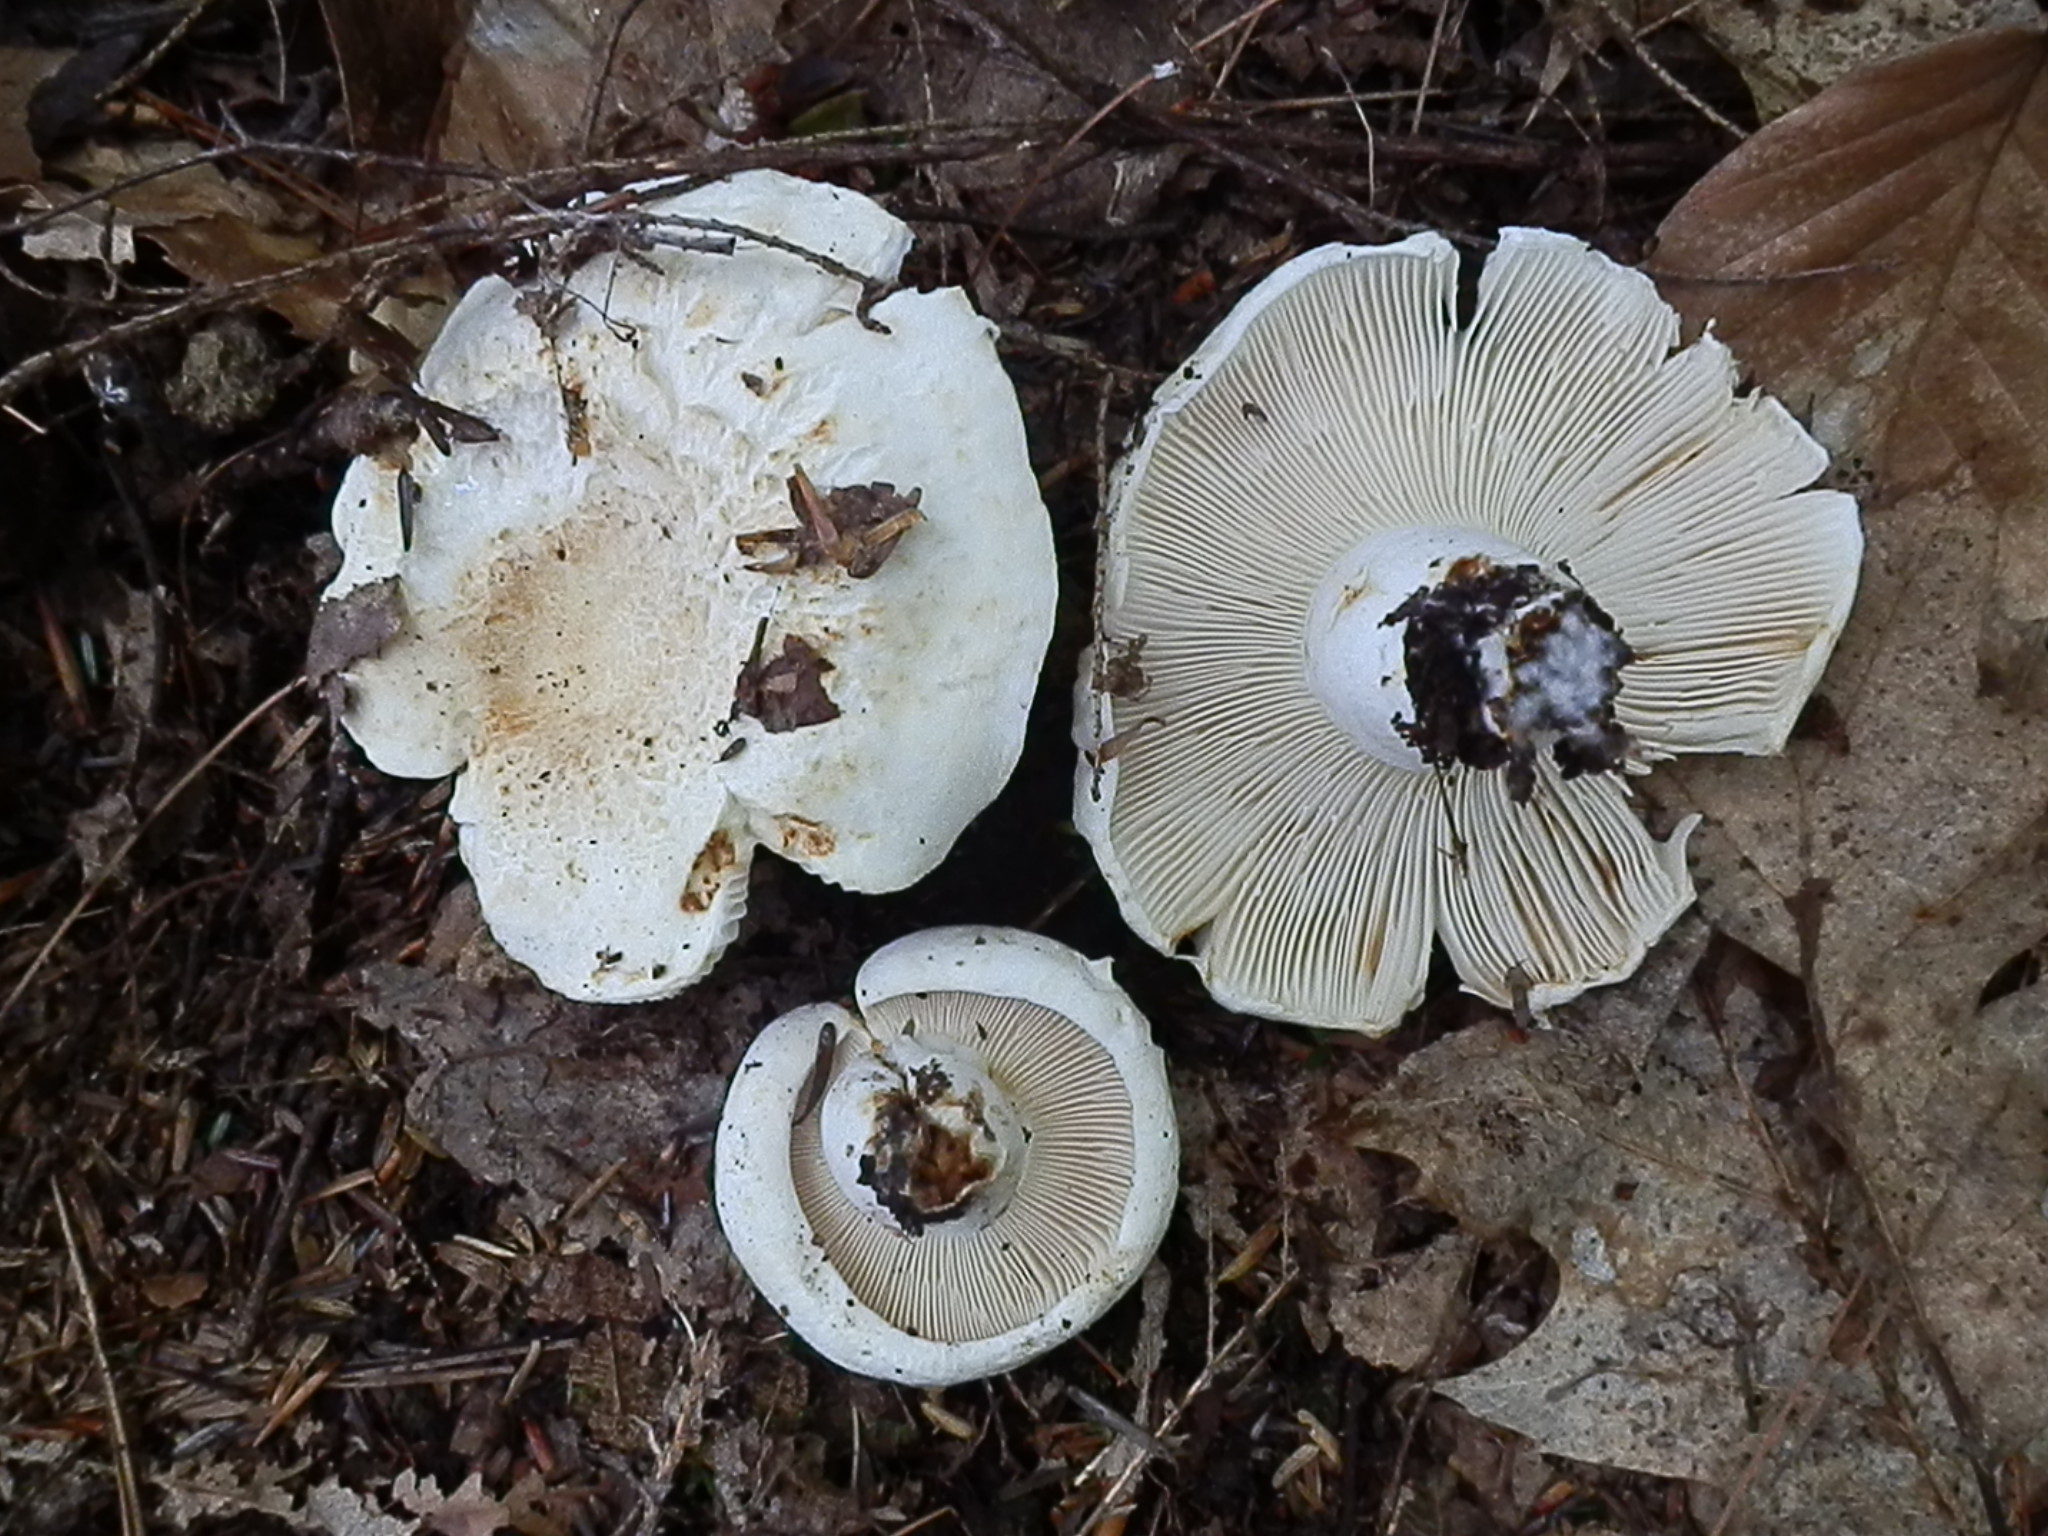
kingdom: Fungi
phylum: Basidiomycota
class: Agaricomycetes
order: Russulales
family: Russulaceae
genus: Lactifluus
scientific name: Lactifluus
